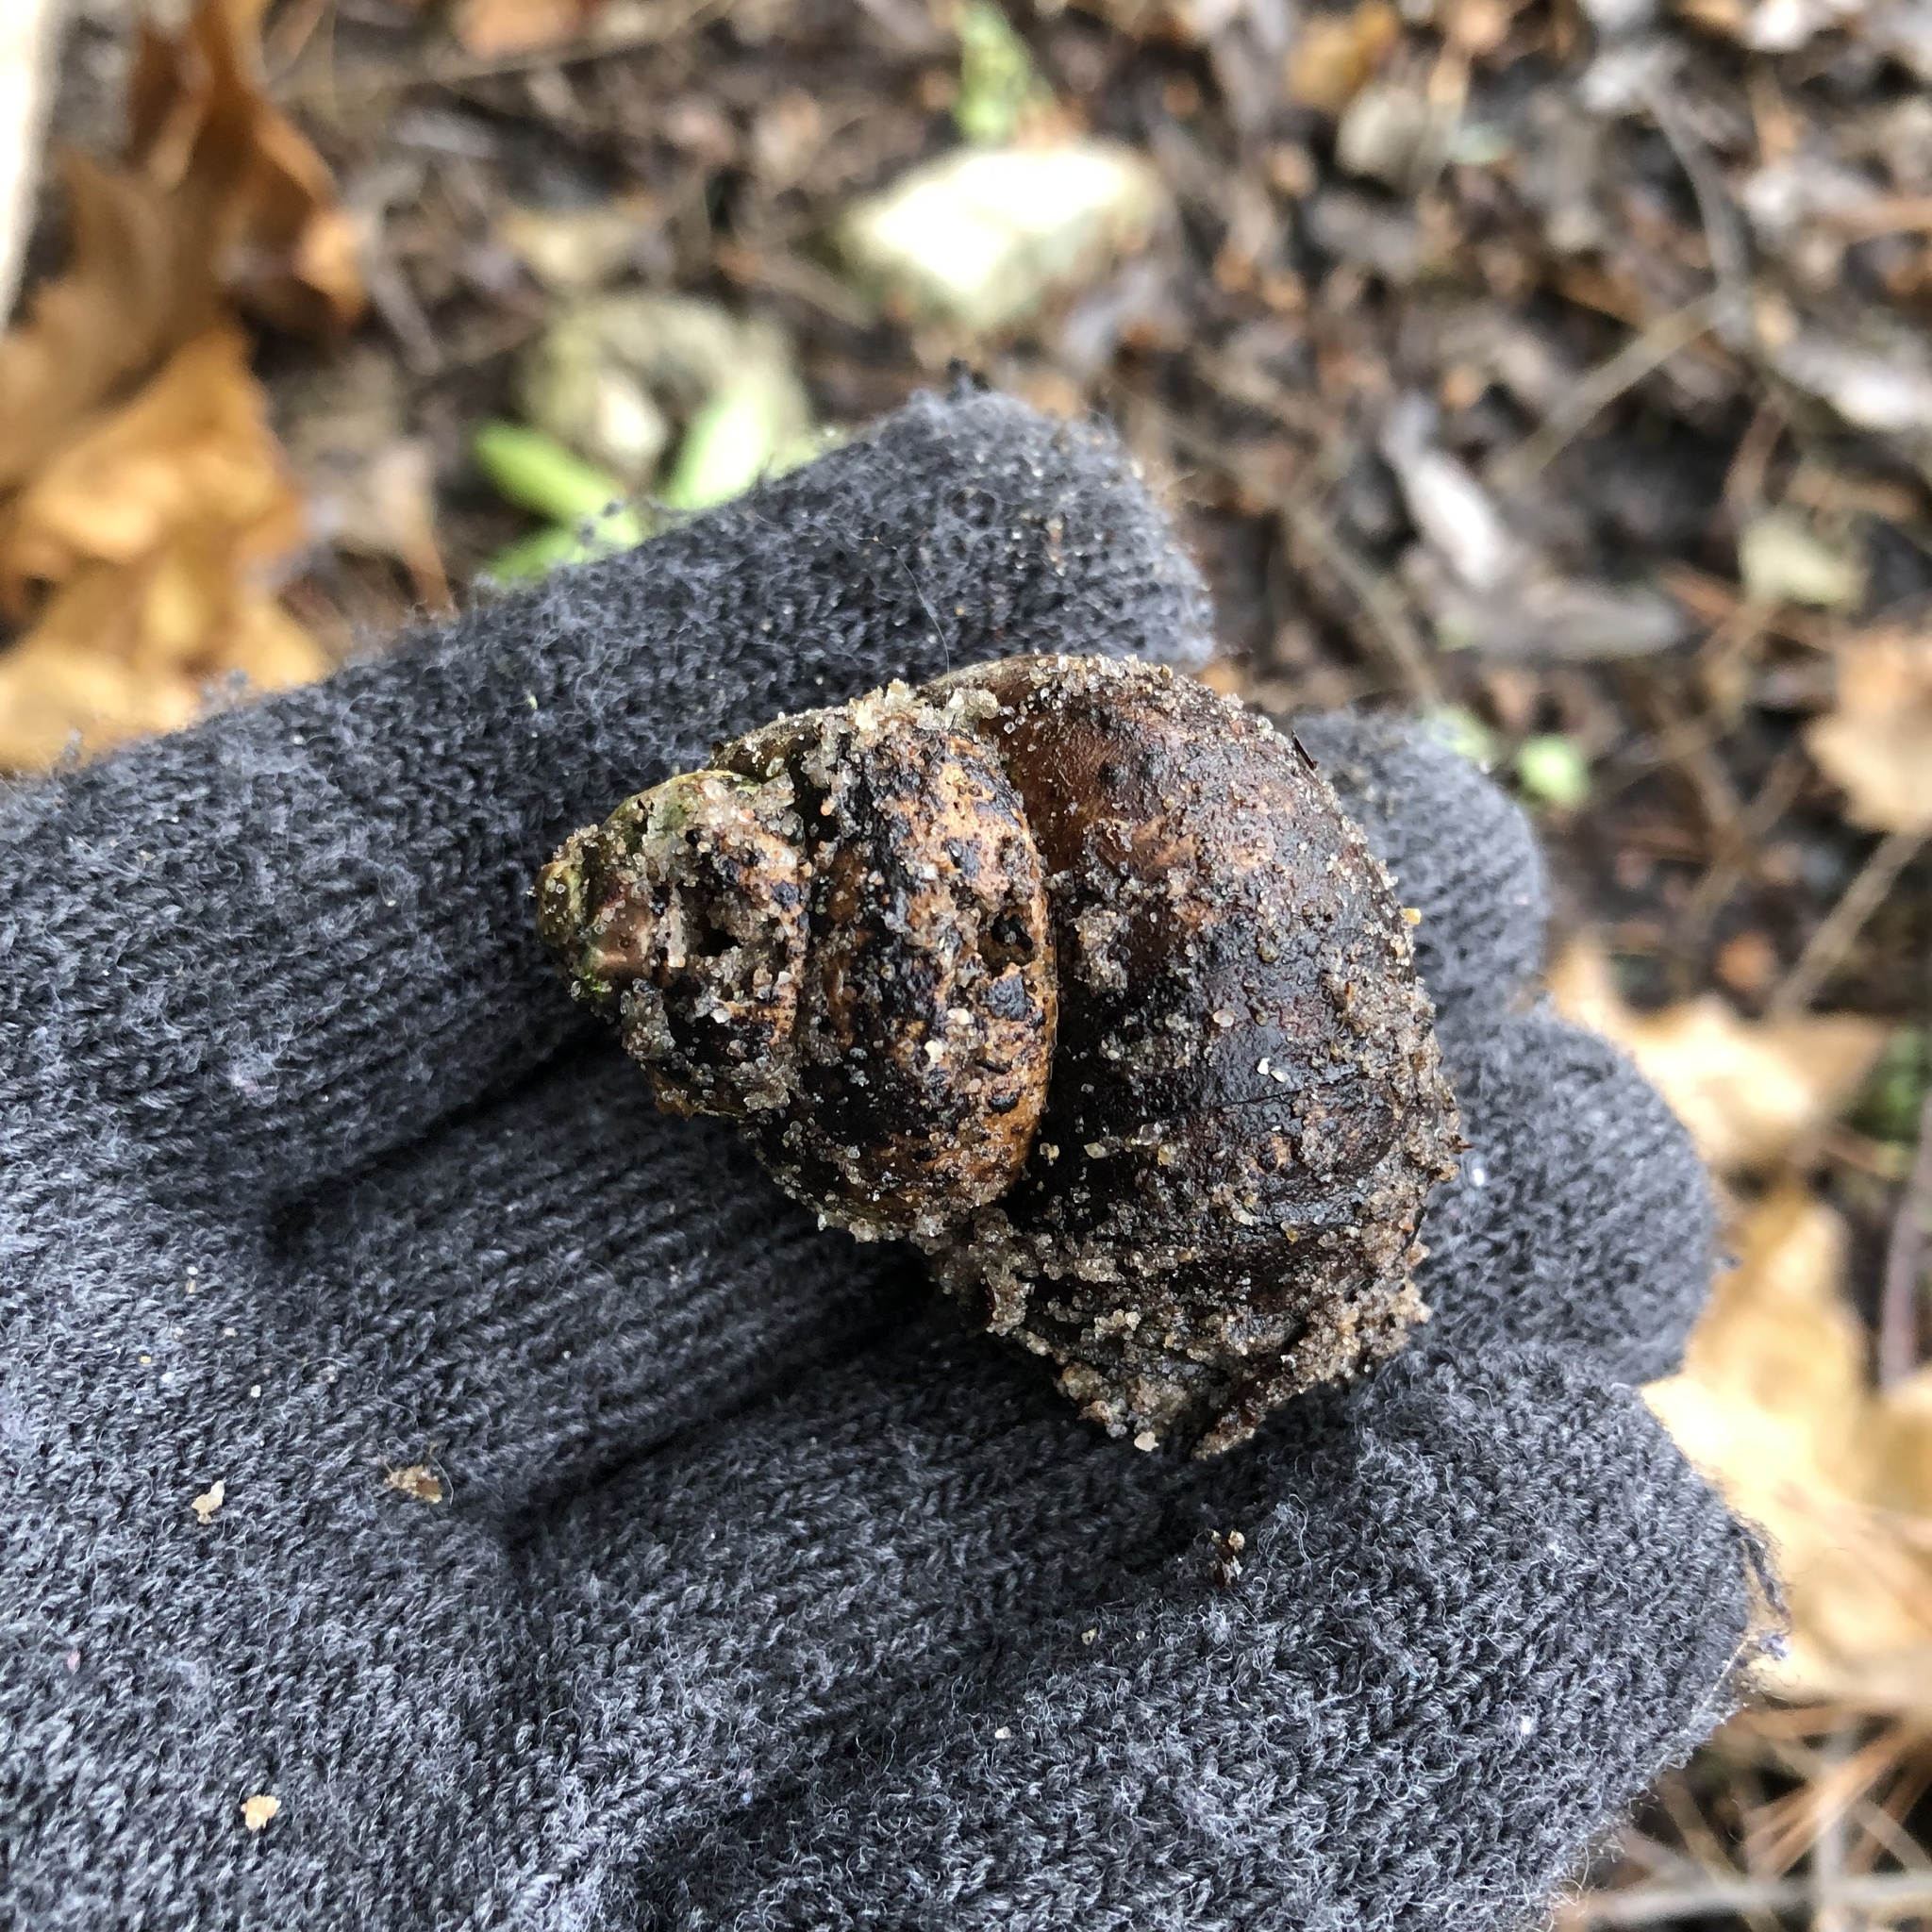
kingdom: Animalia
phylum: Mollusca
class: Gastropoda
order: Architaenioglossa
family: Viviparidae
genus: Cipangopaludina
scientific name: Cipangopaludina chinensis
